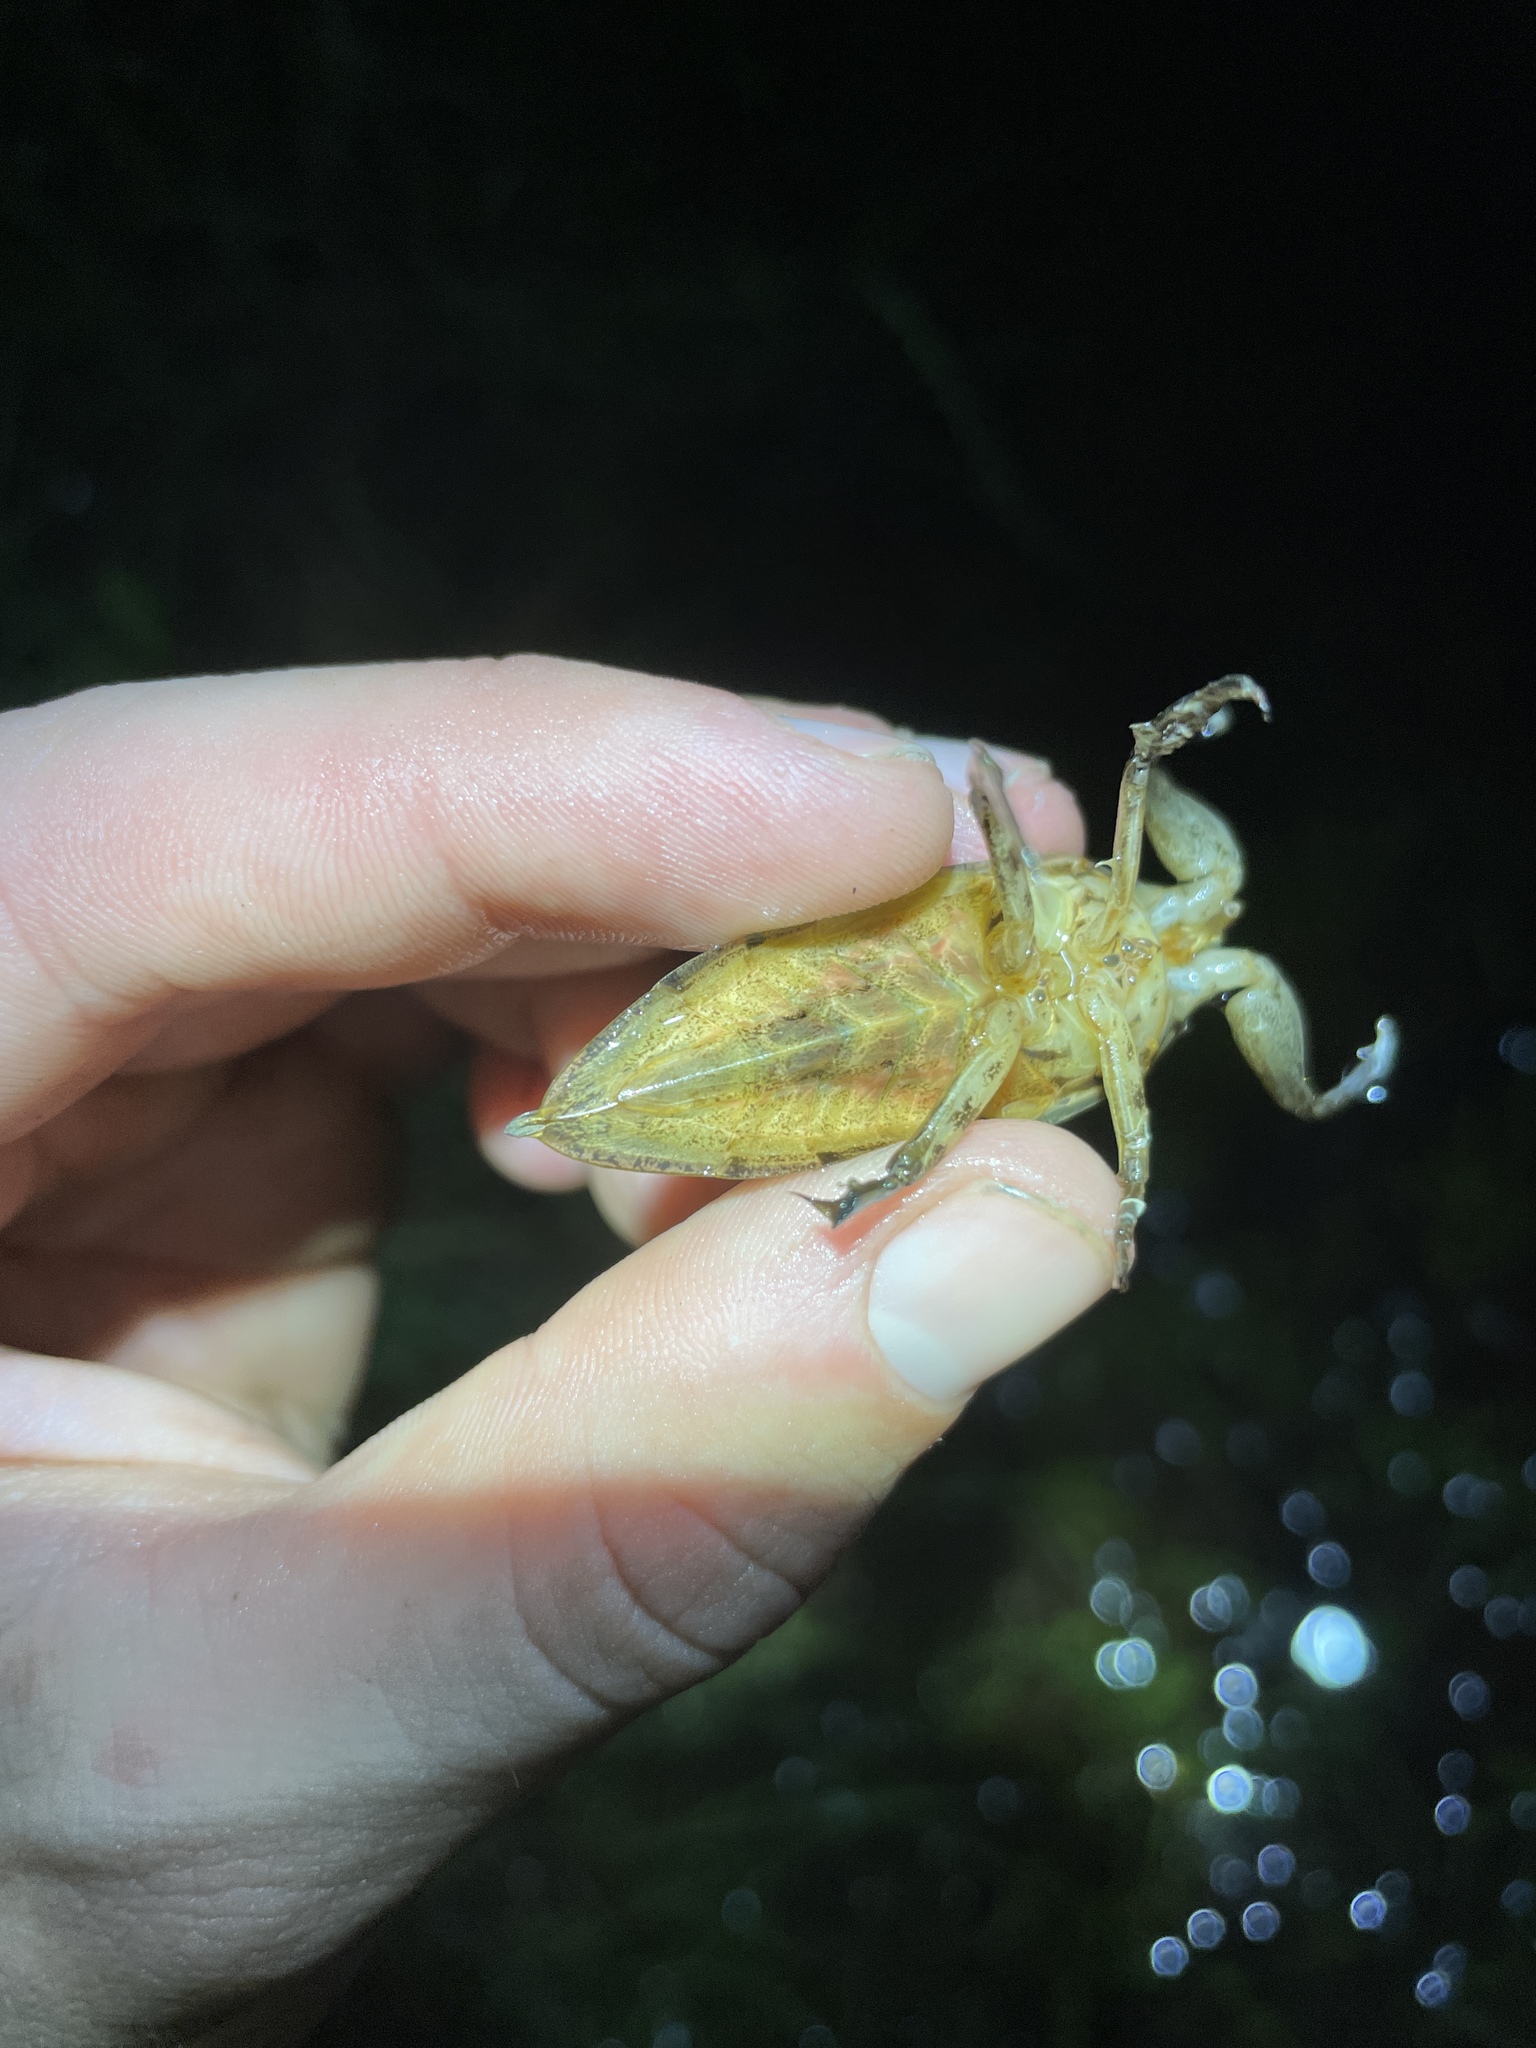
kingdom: Animalia
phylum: Arthropoda
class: Insecta
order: Hemiptera
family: Belostomatidae
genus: Lethocerus
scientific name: Lethocerus uhleri
